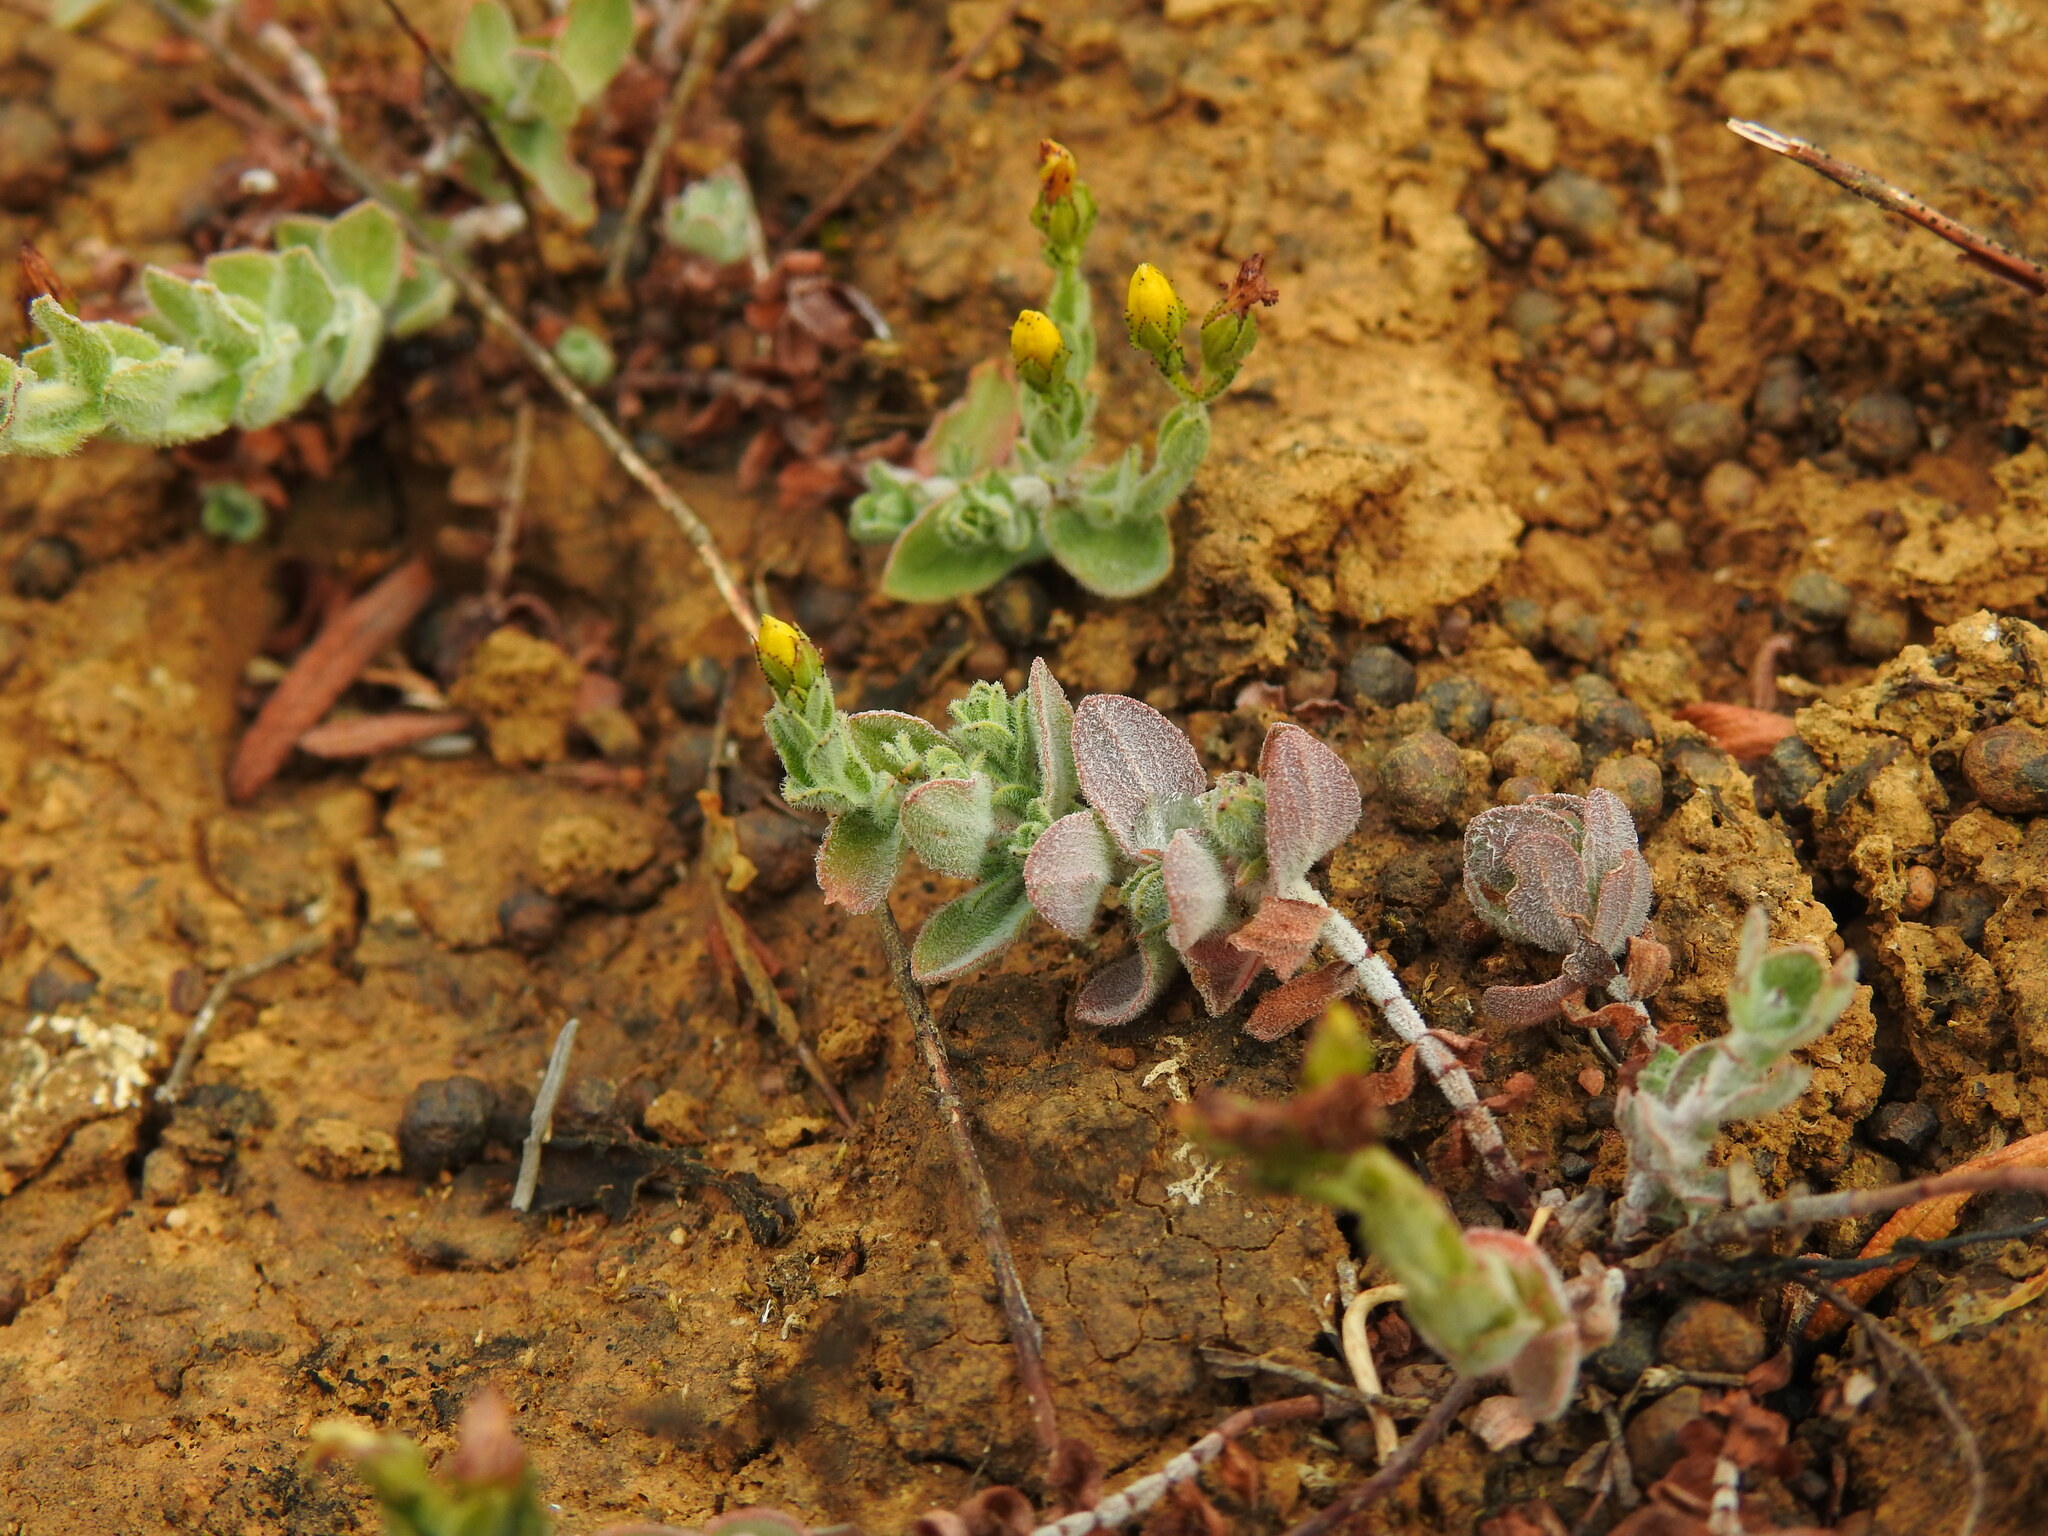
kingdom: Plantae
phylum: Tracheophyta
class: Magnoliopsida
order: Malpighiales
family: Hypericaceae
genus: Hypericum
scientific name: Hypericum tomentosum
